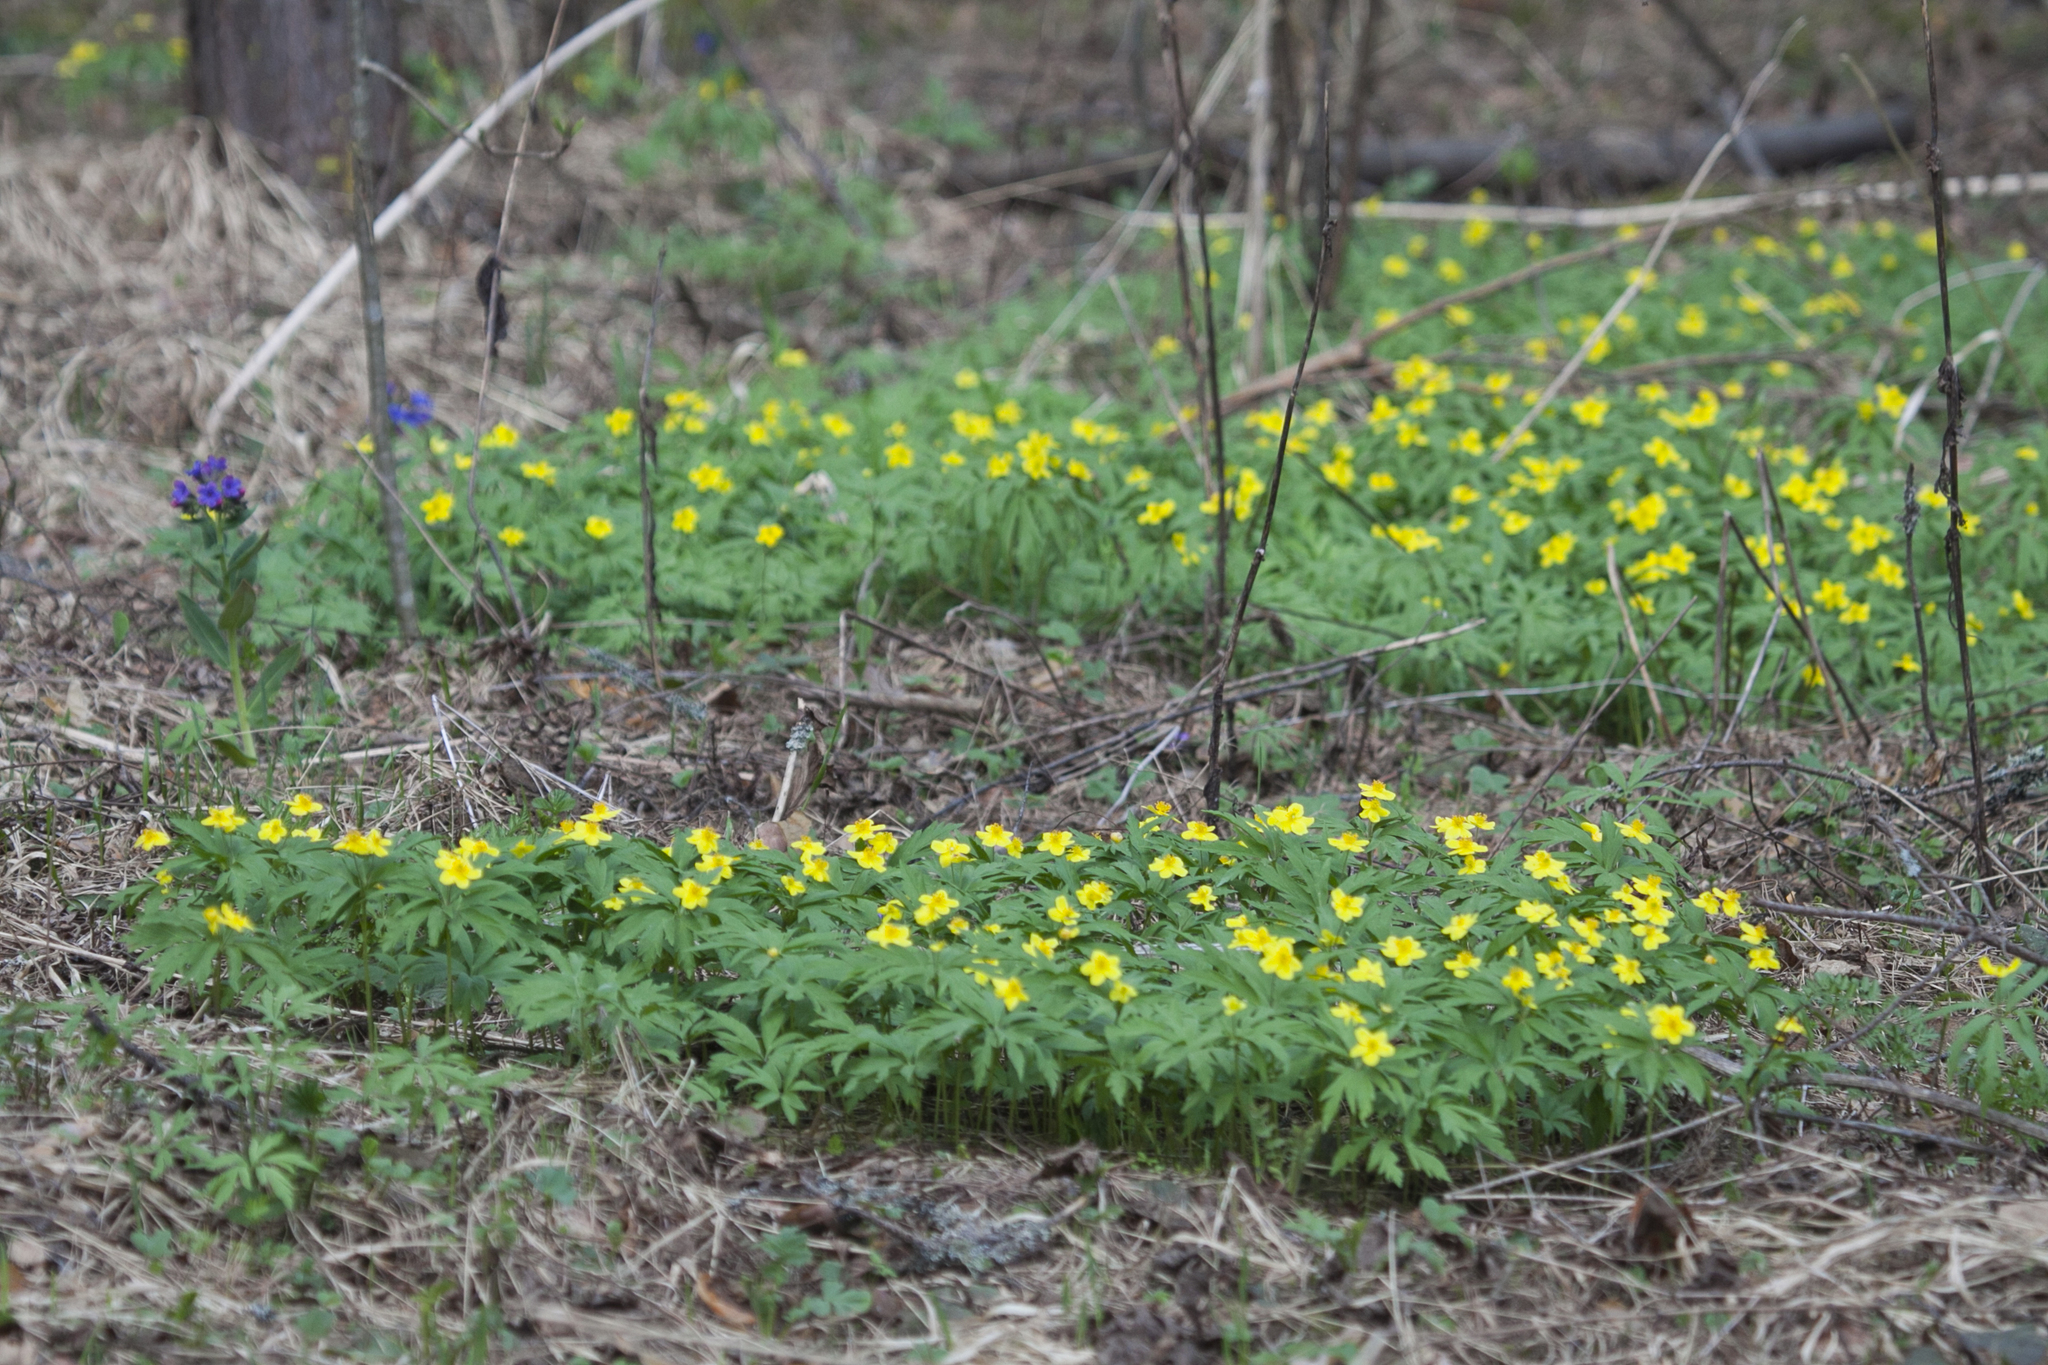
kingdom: Plantae
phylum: Tracheophyta
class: Magnoliopsida
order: Ranunculales
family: Ranunculaceae
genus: Anemone
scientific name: Anemone ranunculoides
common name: Yellow anemone
